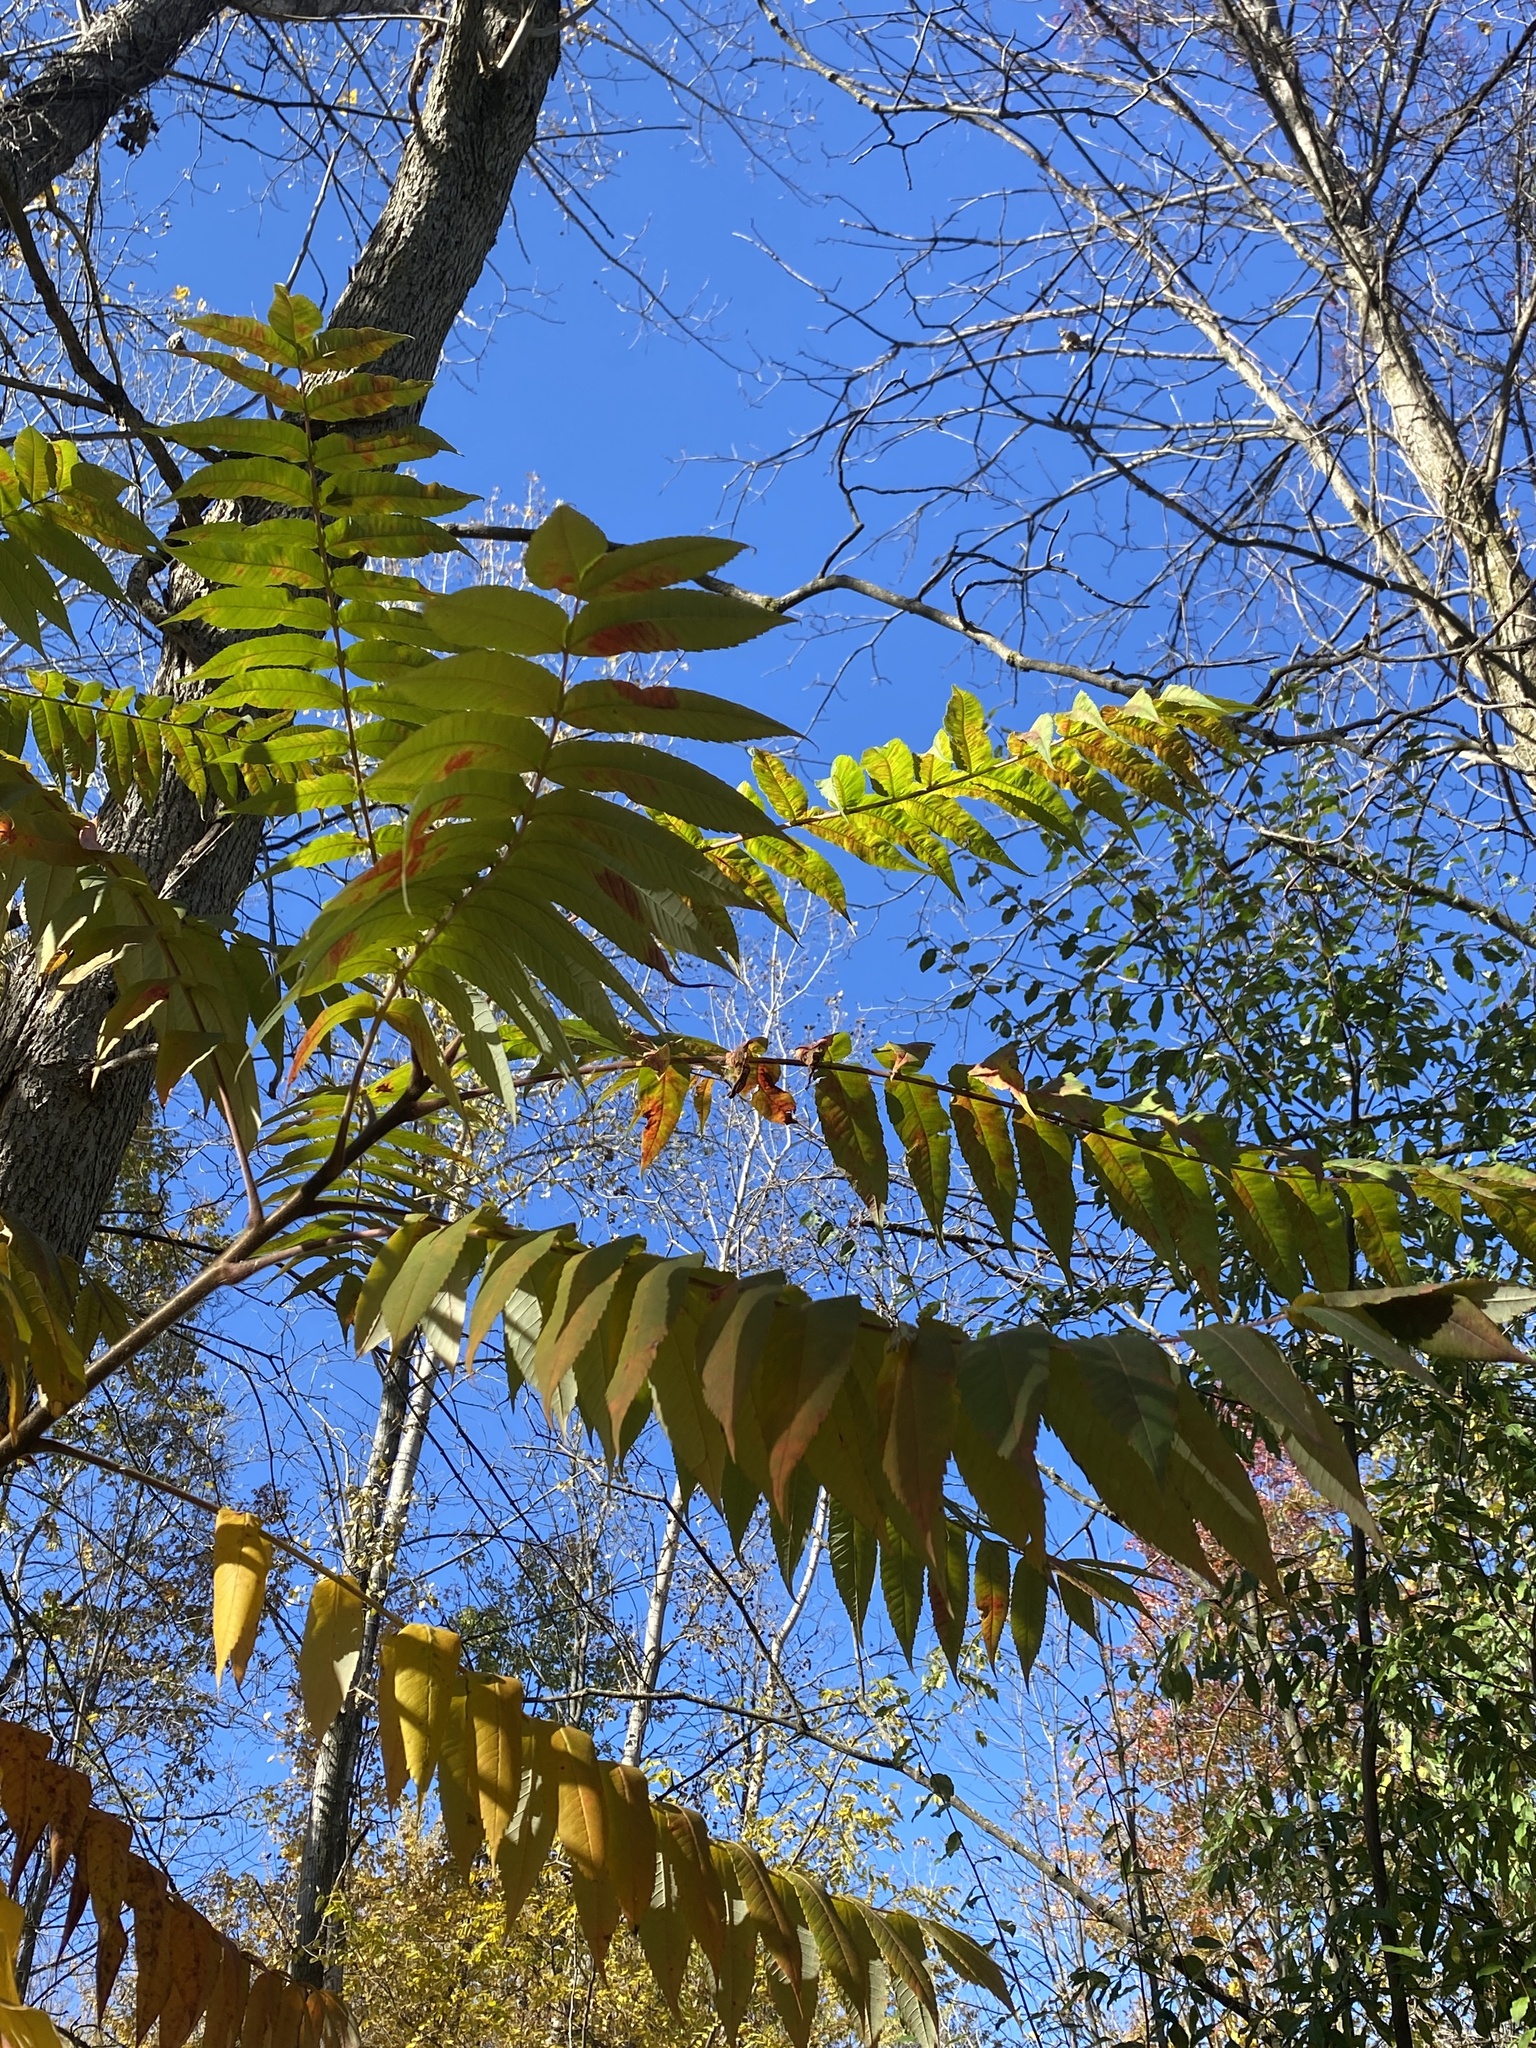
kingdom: Plantae
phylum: Tracheophyta
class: Magnoliopsida
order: Sapindales
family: Anacardiaceae
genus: Rhus
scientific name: Rhus typhina
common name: Staghorn sumac
